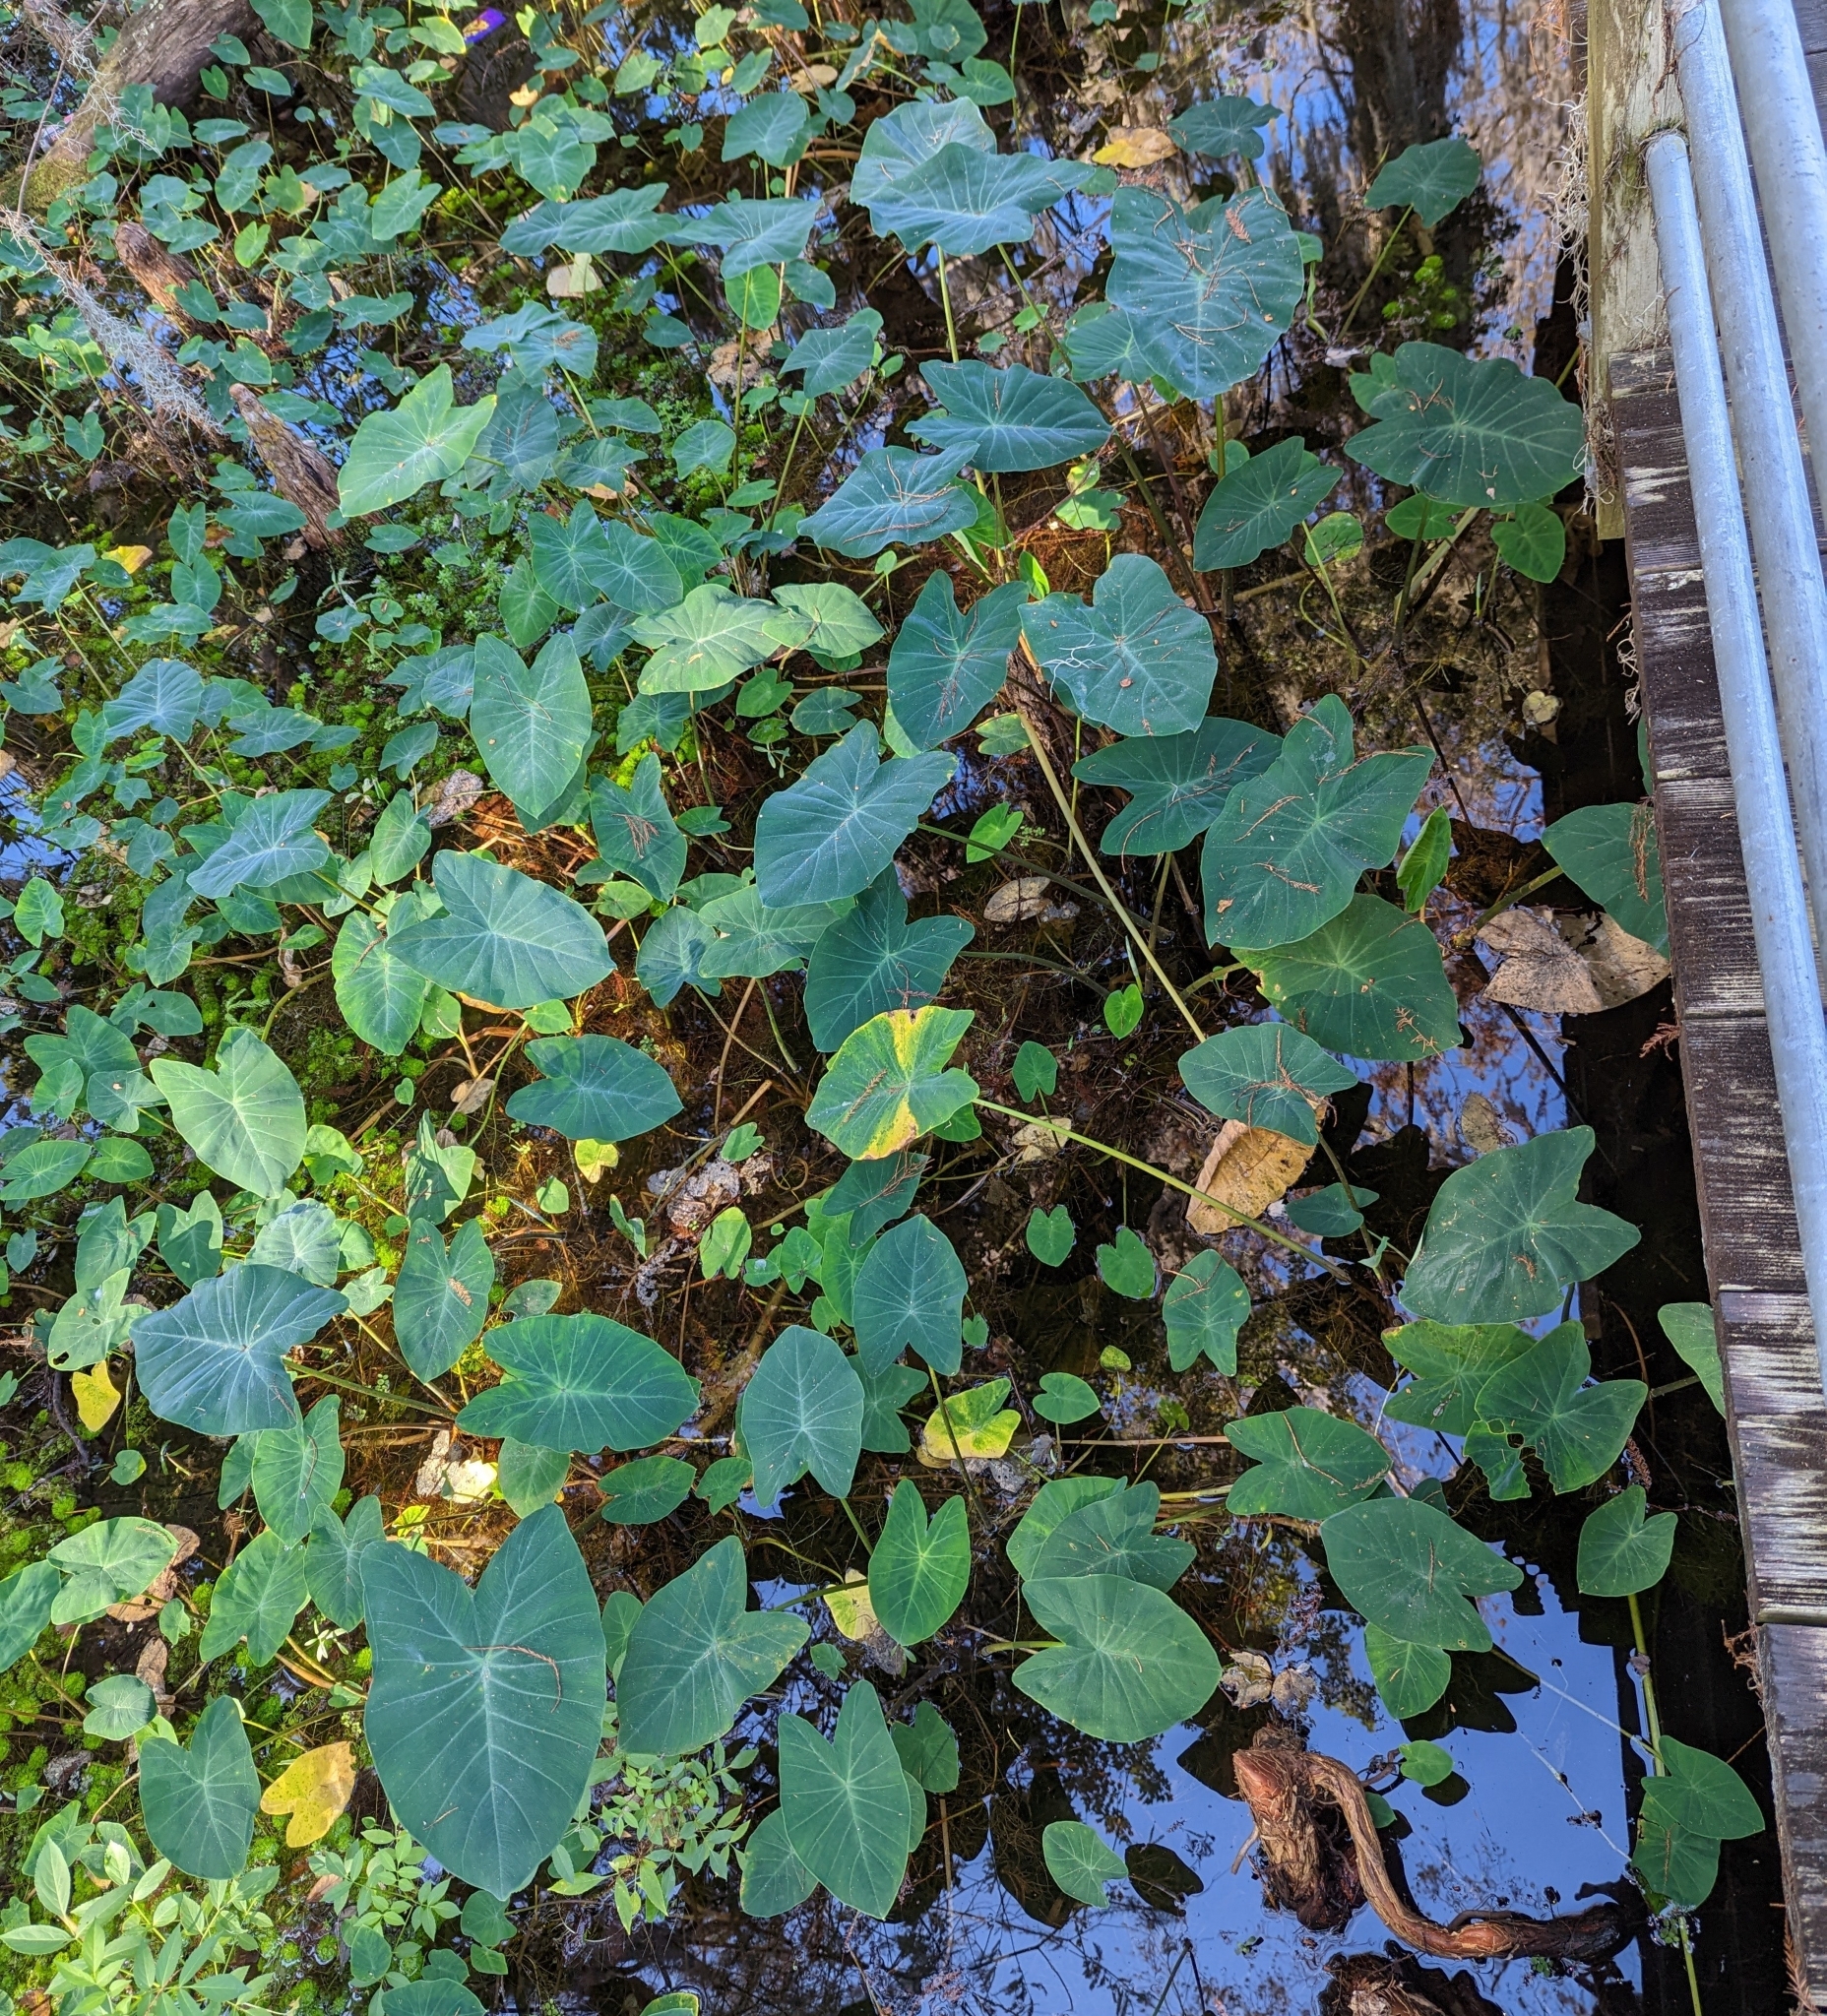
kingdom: Plantae
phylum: Tracheophyta
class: Liliopsida
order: Alismatales
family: Araceae
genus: Colocasia
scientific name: Colocasia esculenta
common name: Taro
